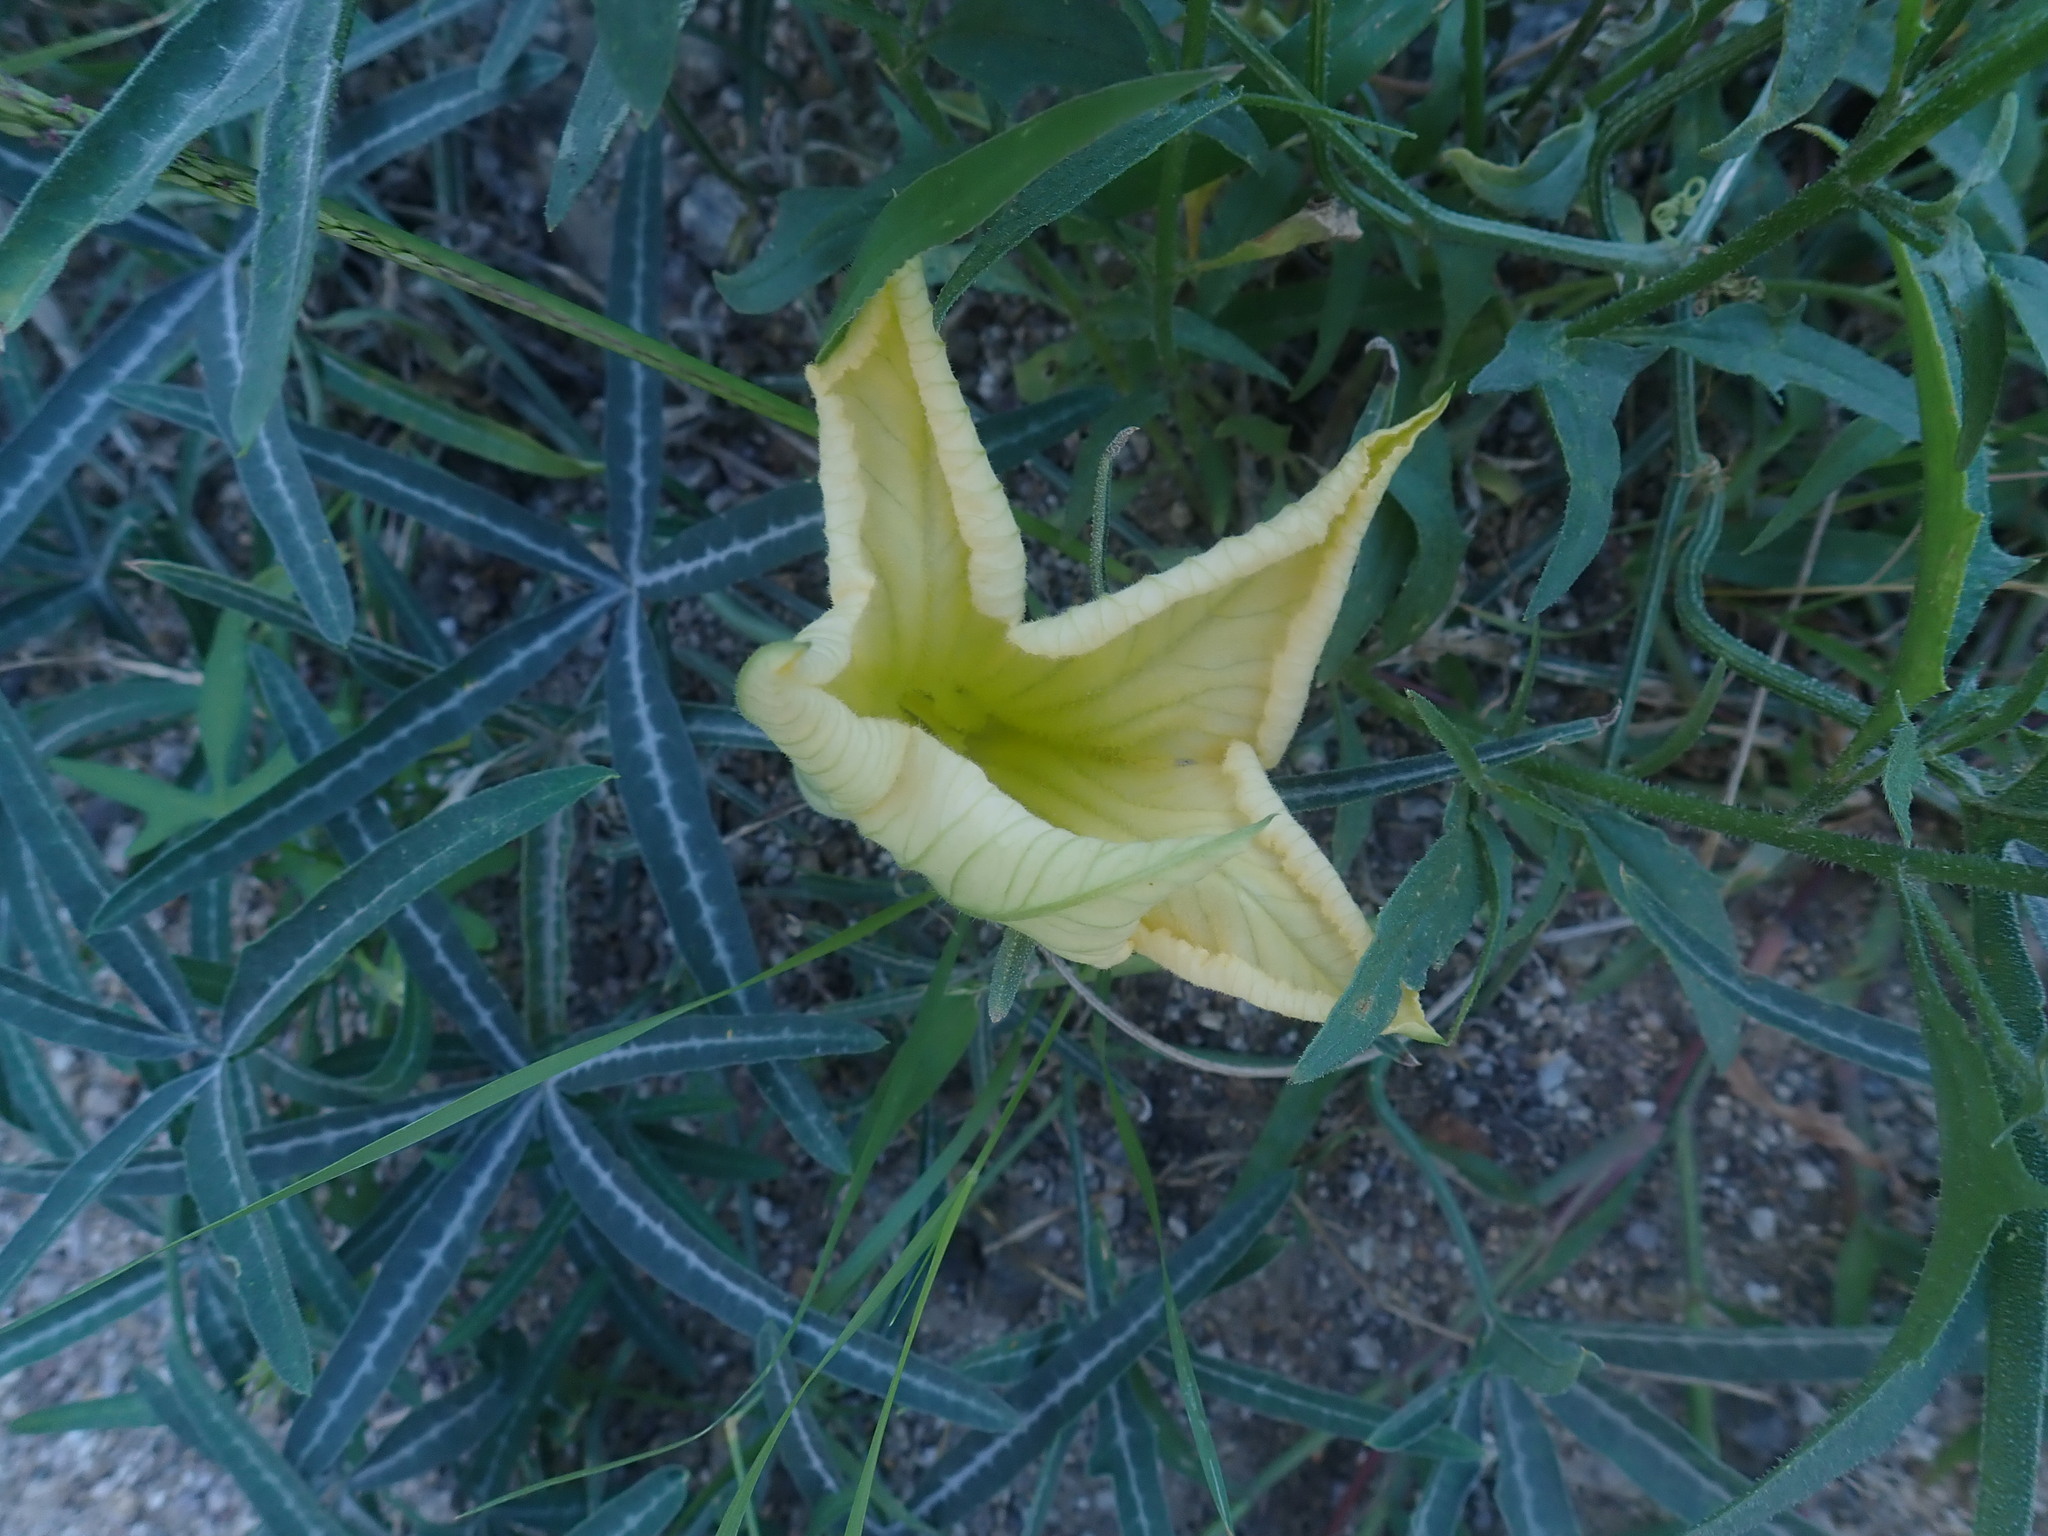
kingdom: Plantae
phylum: Tracheophyta
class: Magnoliopsida
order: Cucurbitales
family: Cucurbitaceae
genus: Cucurbita
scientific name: Cucurbita digitata
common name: Finger-leaf gourd
